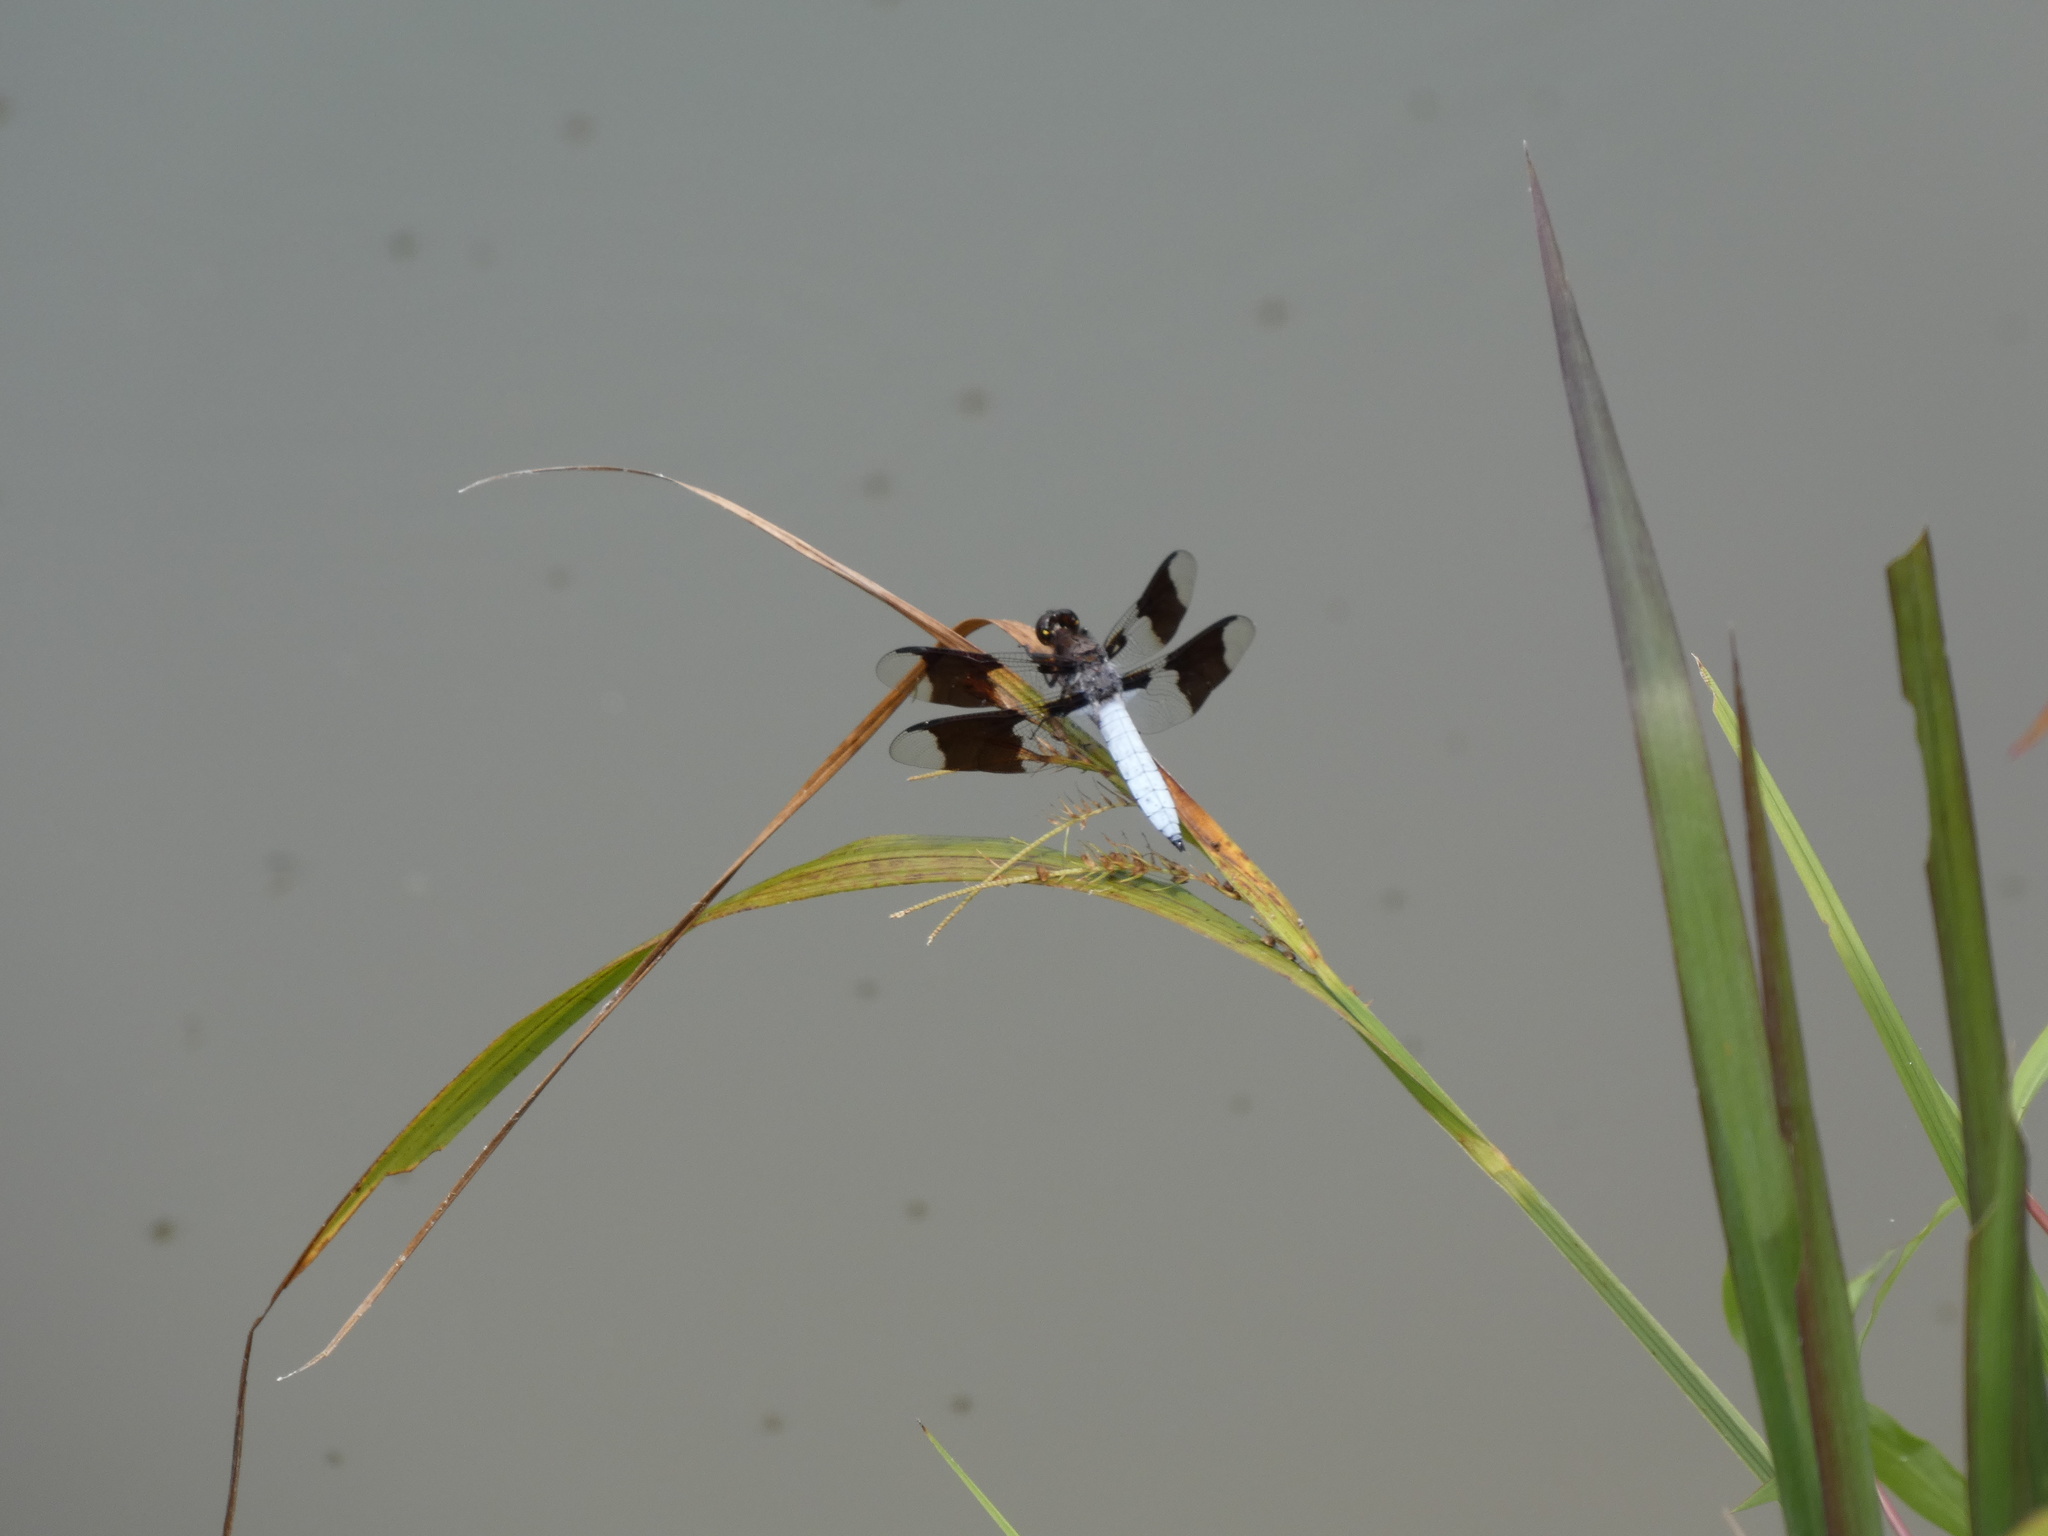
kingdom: Animalia
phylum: Arthropoda
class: Insecta
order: Odonata
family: Libellulidae
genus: Plathemis
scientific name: Plathemis lydia
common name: Common whitetail
